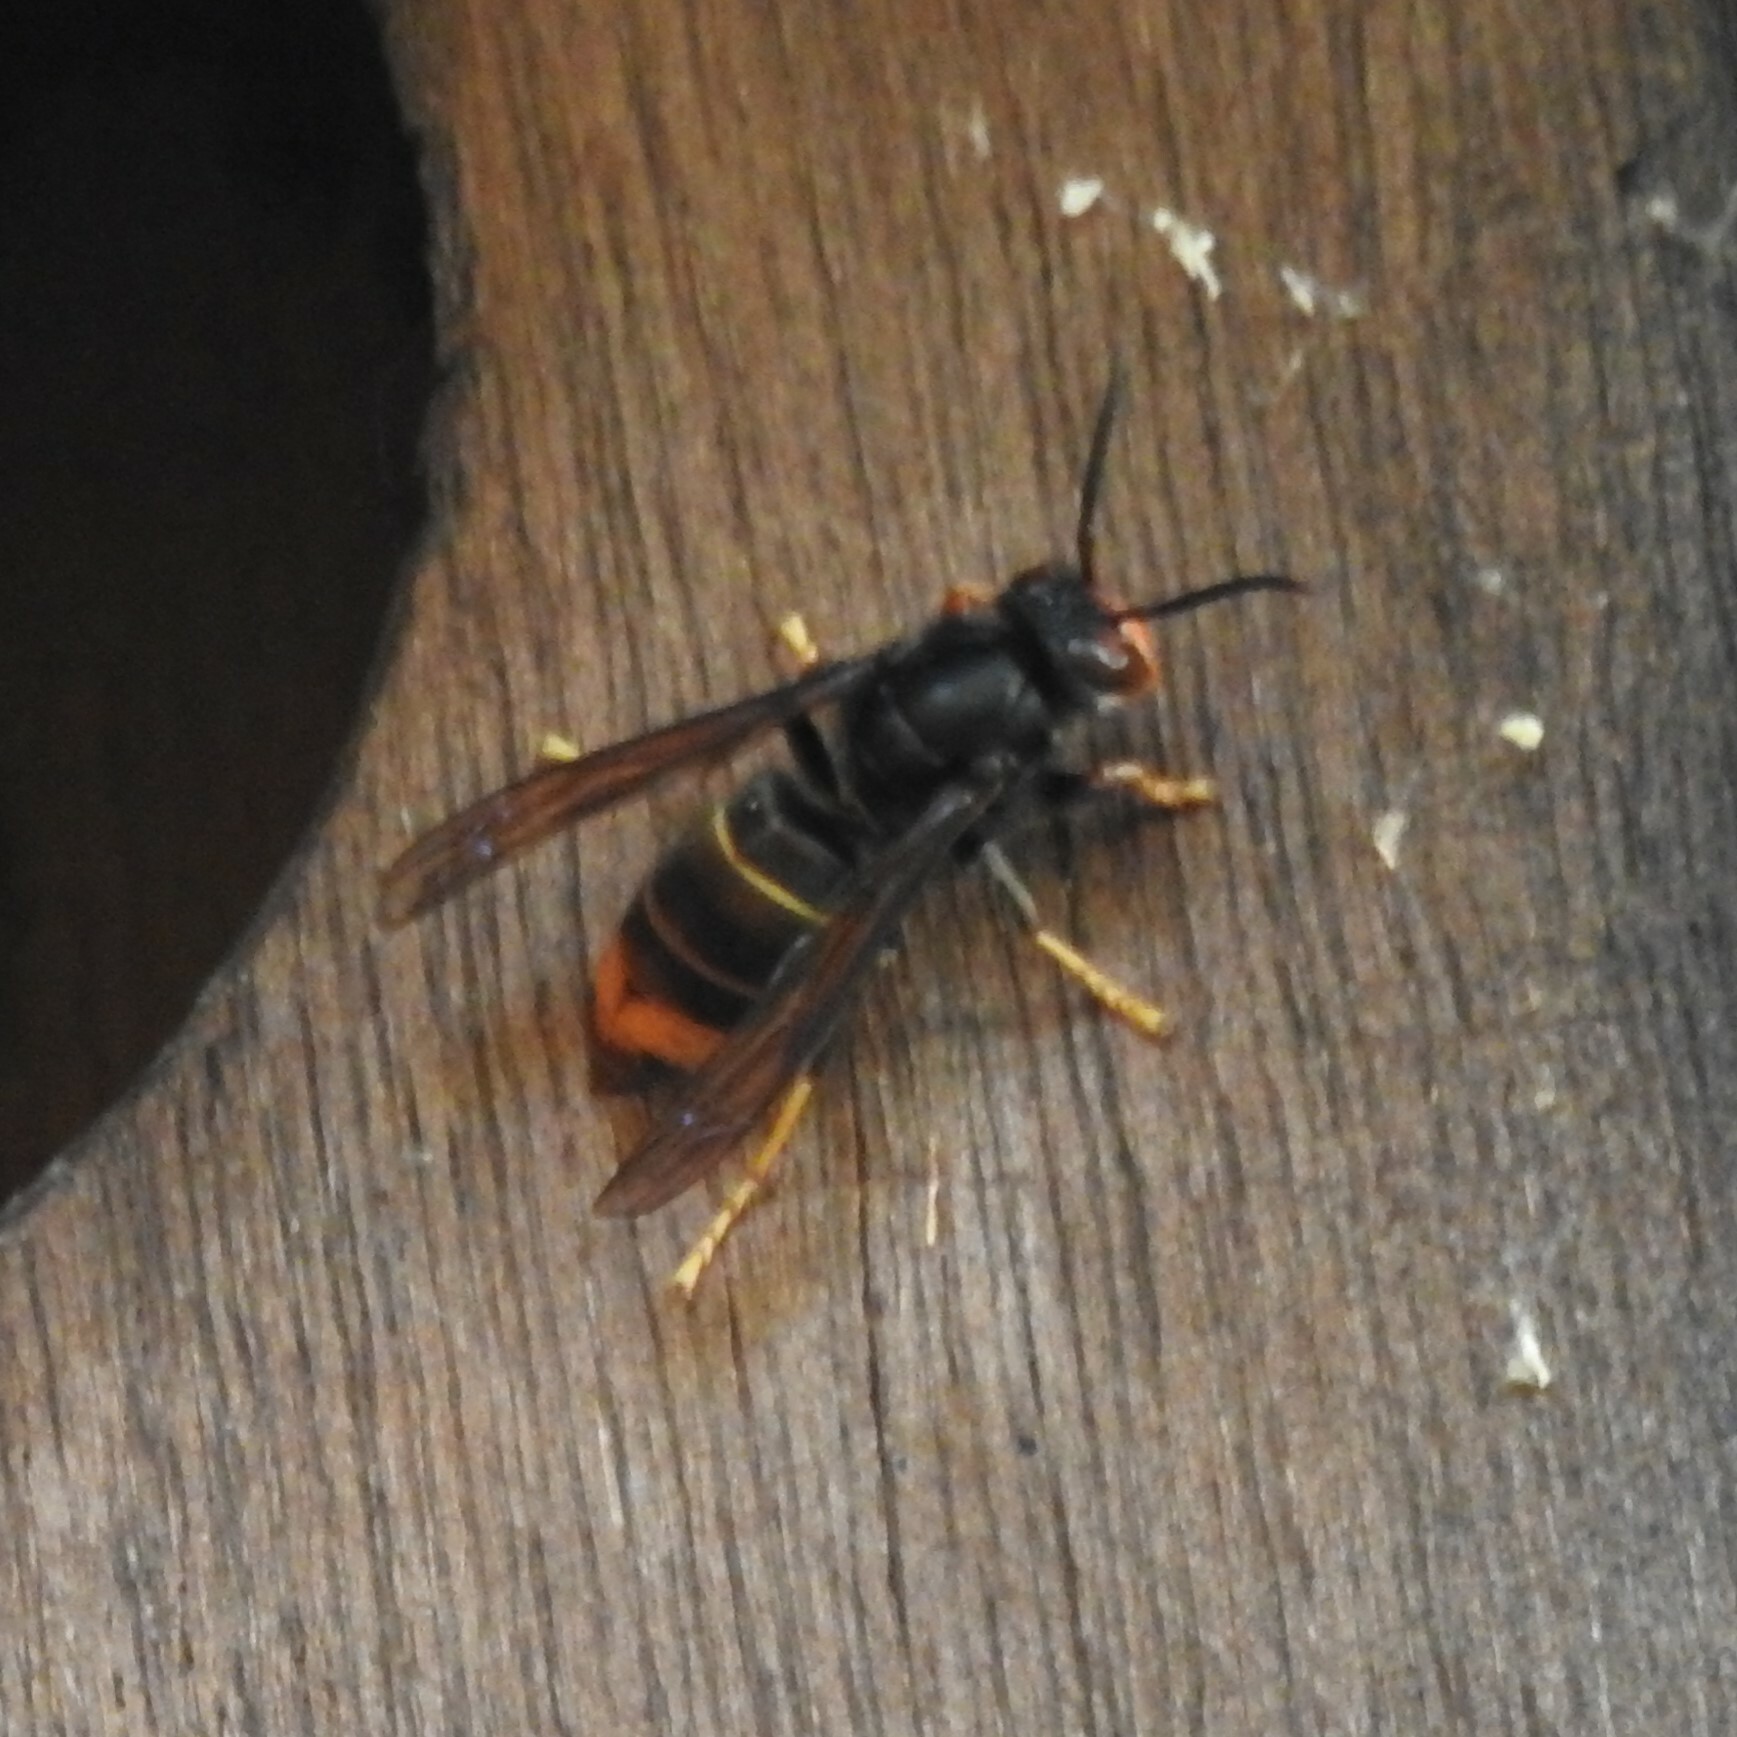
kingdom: Animalia
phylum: Arthropoda
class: Insecta
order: Hymenoptera
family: Vespidae
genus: Vespa
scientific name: Vespa velutina
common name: Asian hornet
